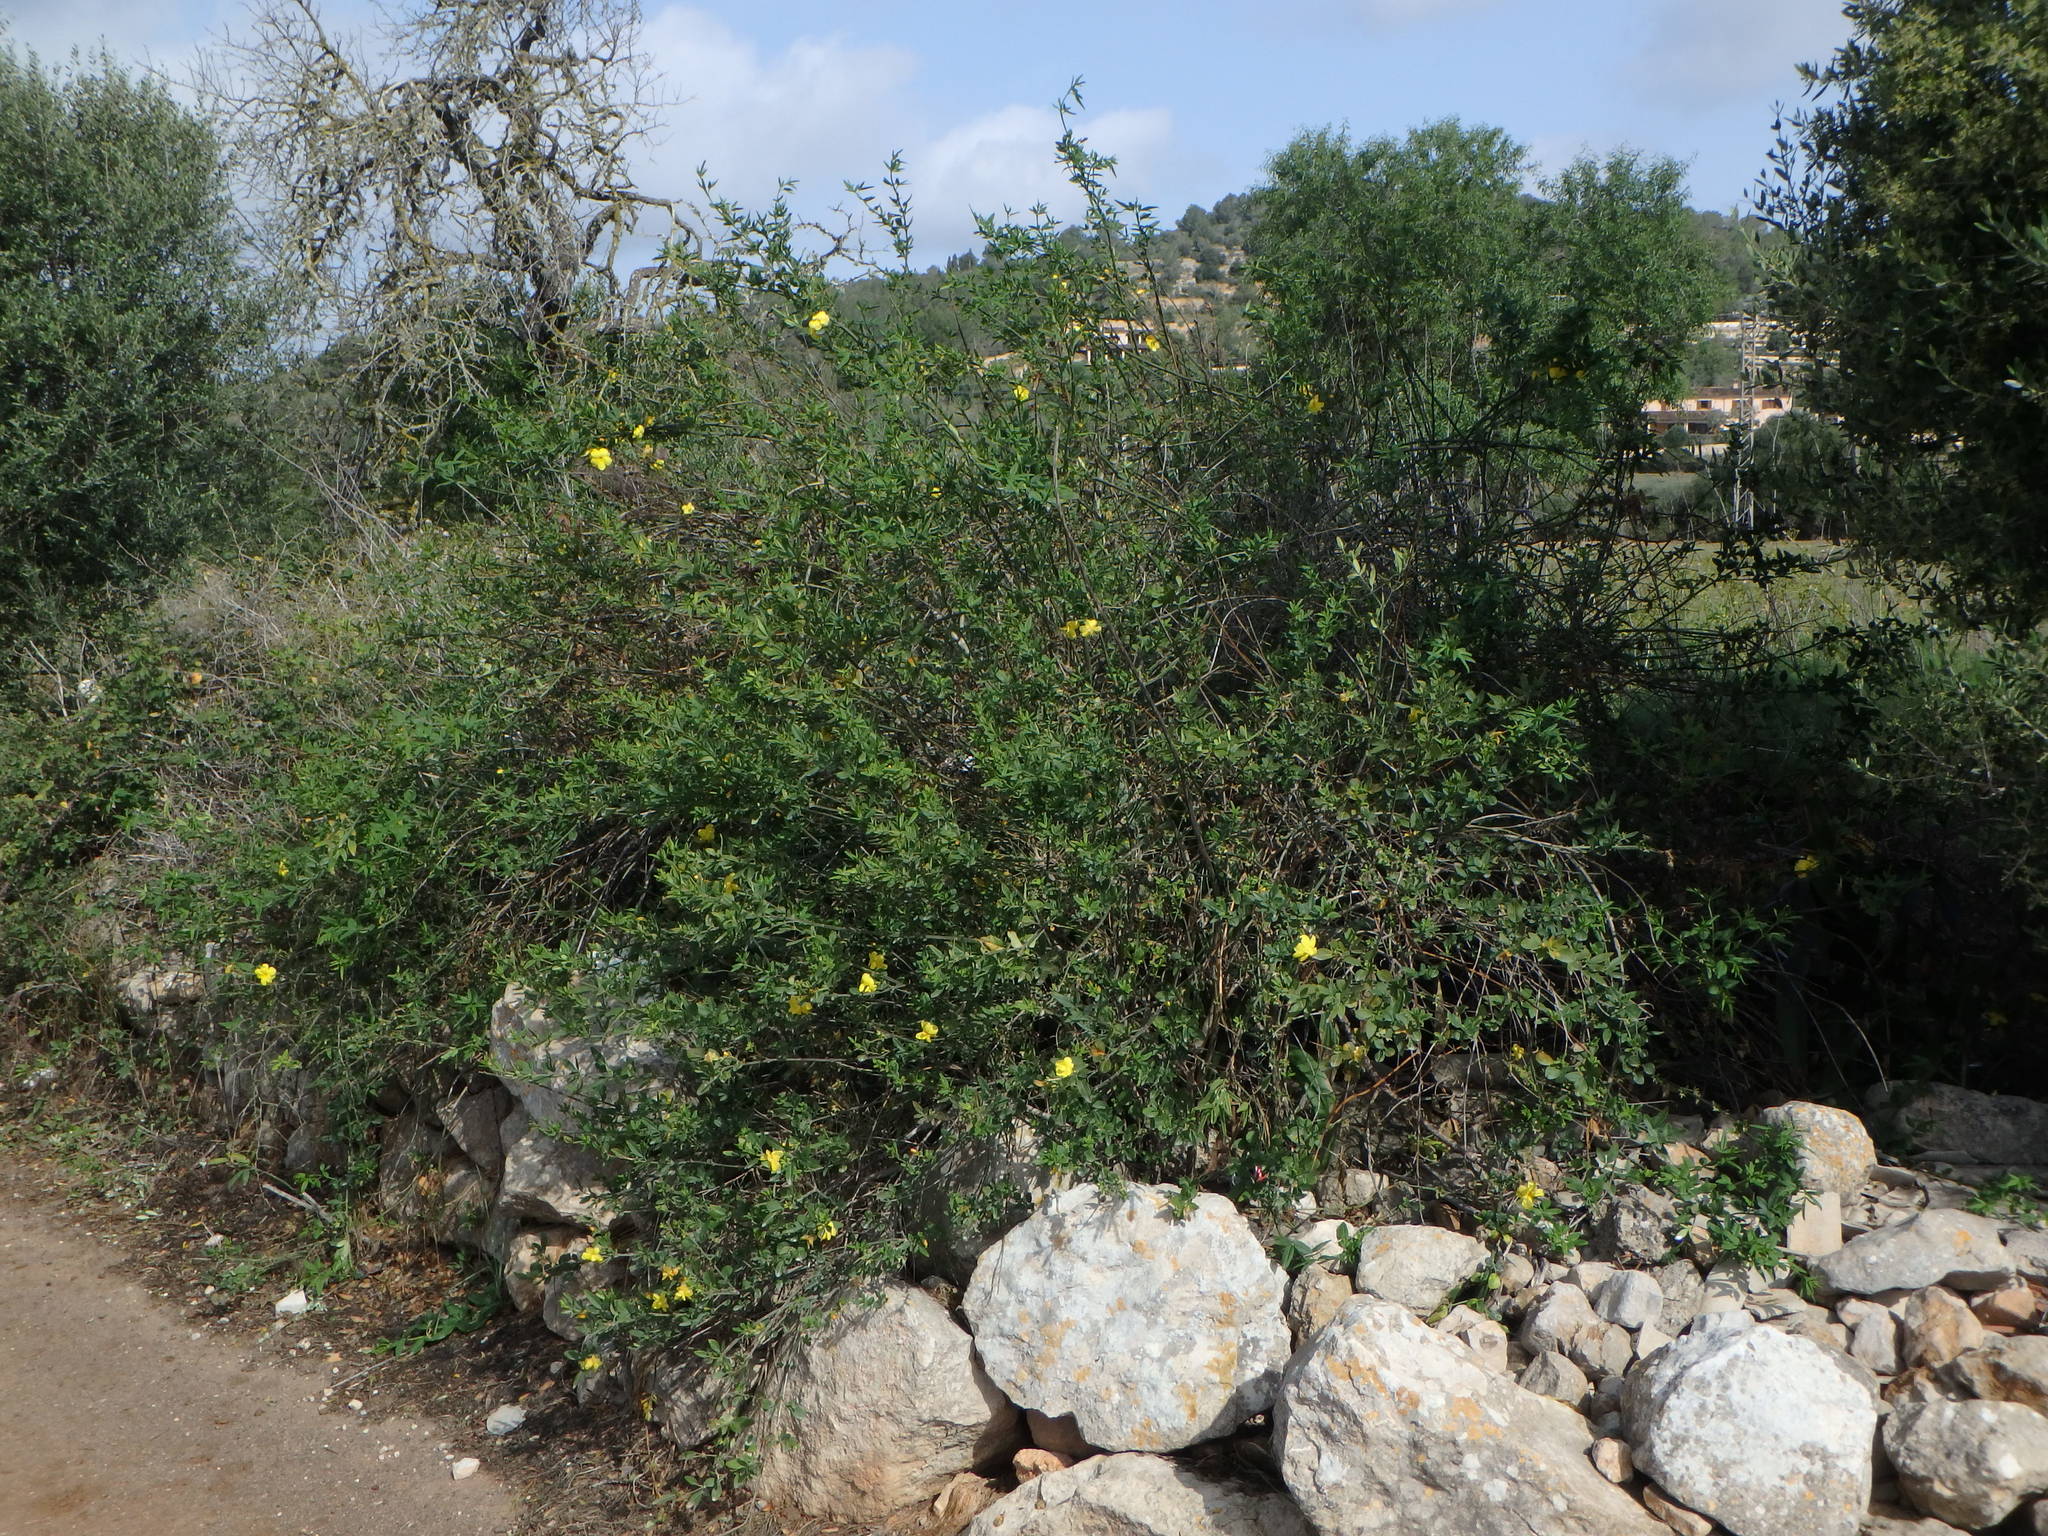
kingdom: Plantae
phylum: Tracheophyta
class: Magnoliopsida
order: Lamiales
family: Oleaceae
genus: Jasminum
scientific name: Jasminum mesnyi
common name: Japanese jasmine
